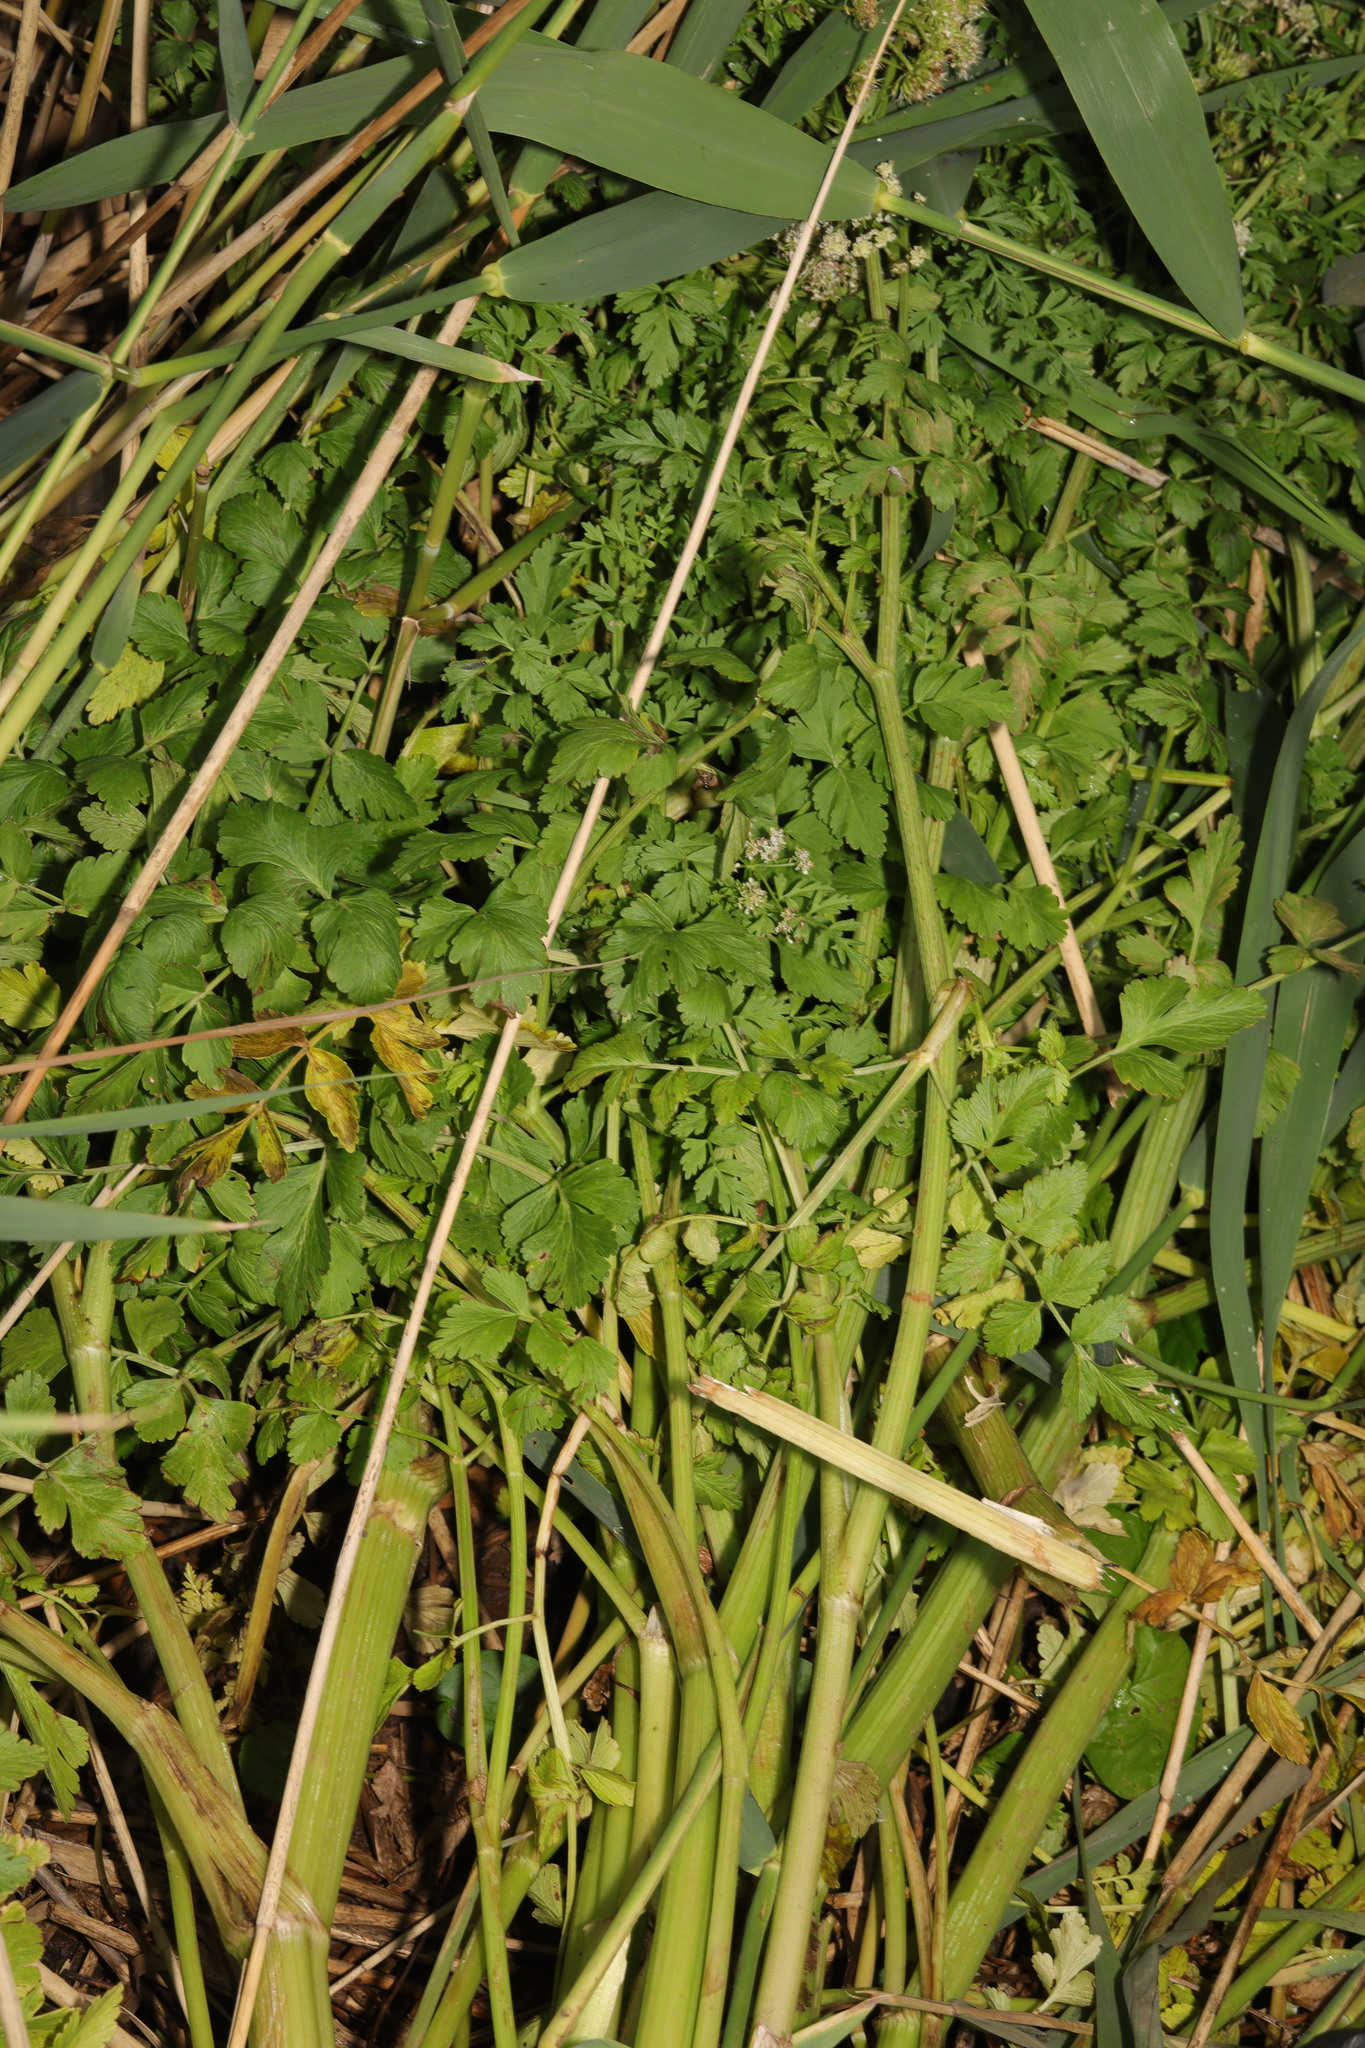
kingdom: Plantae
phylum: Tracheophyta
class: Magnoliopsida
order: Apiales
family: Apiaceae
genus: Oenanthe
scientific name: Oenanthe crocata
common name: Hemlock water-dropwort
